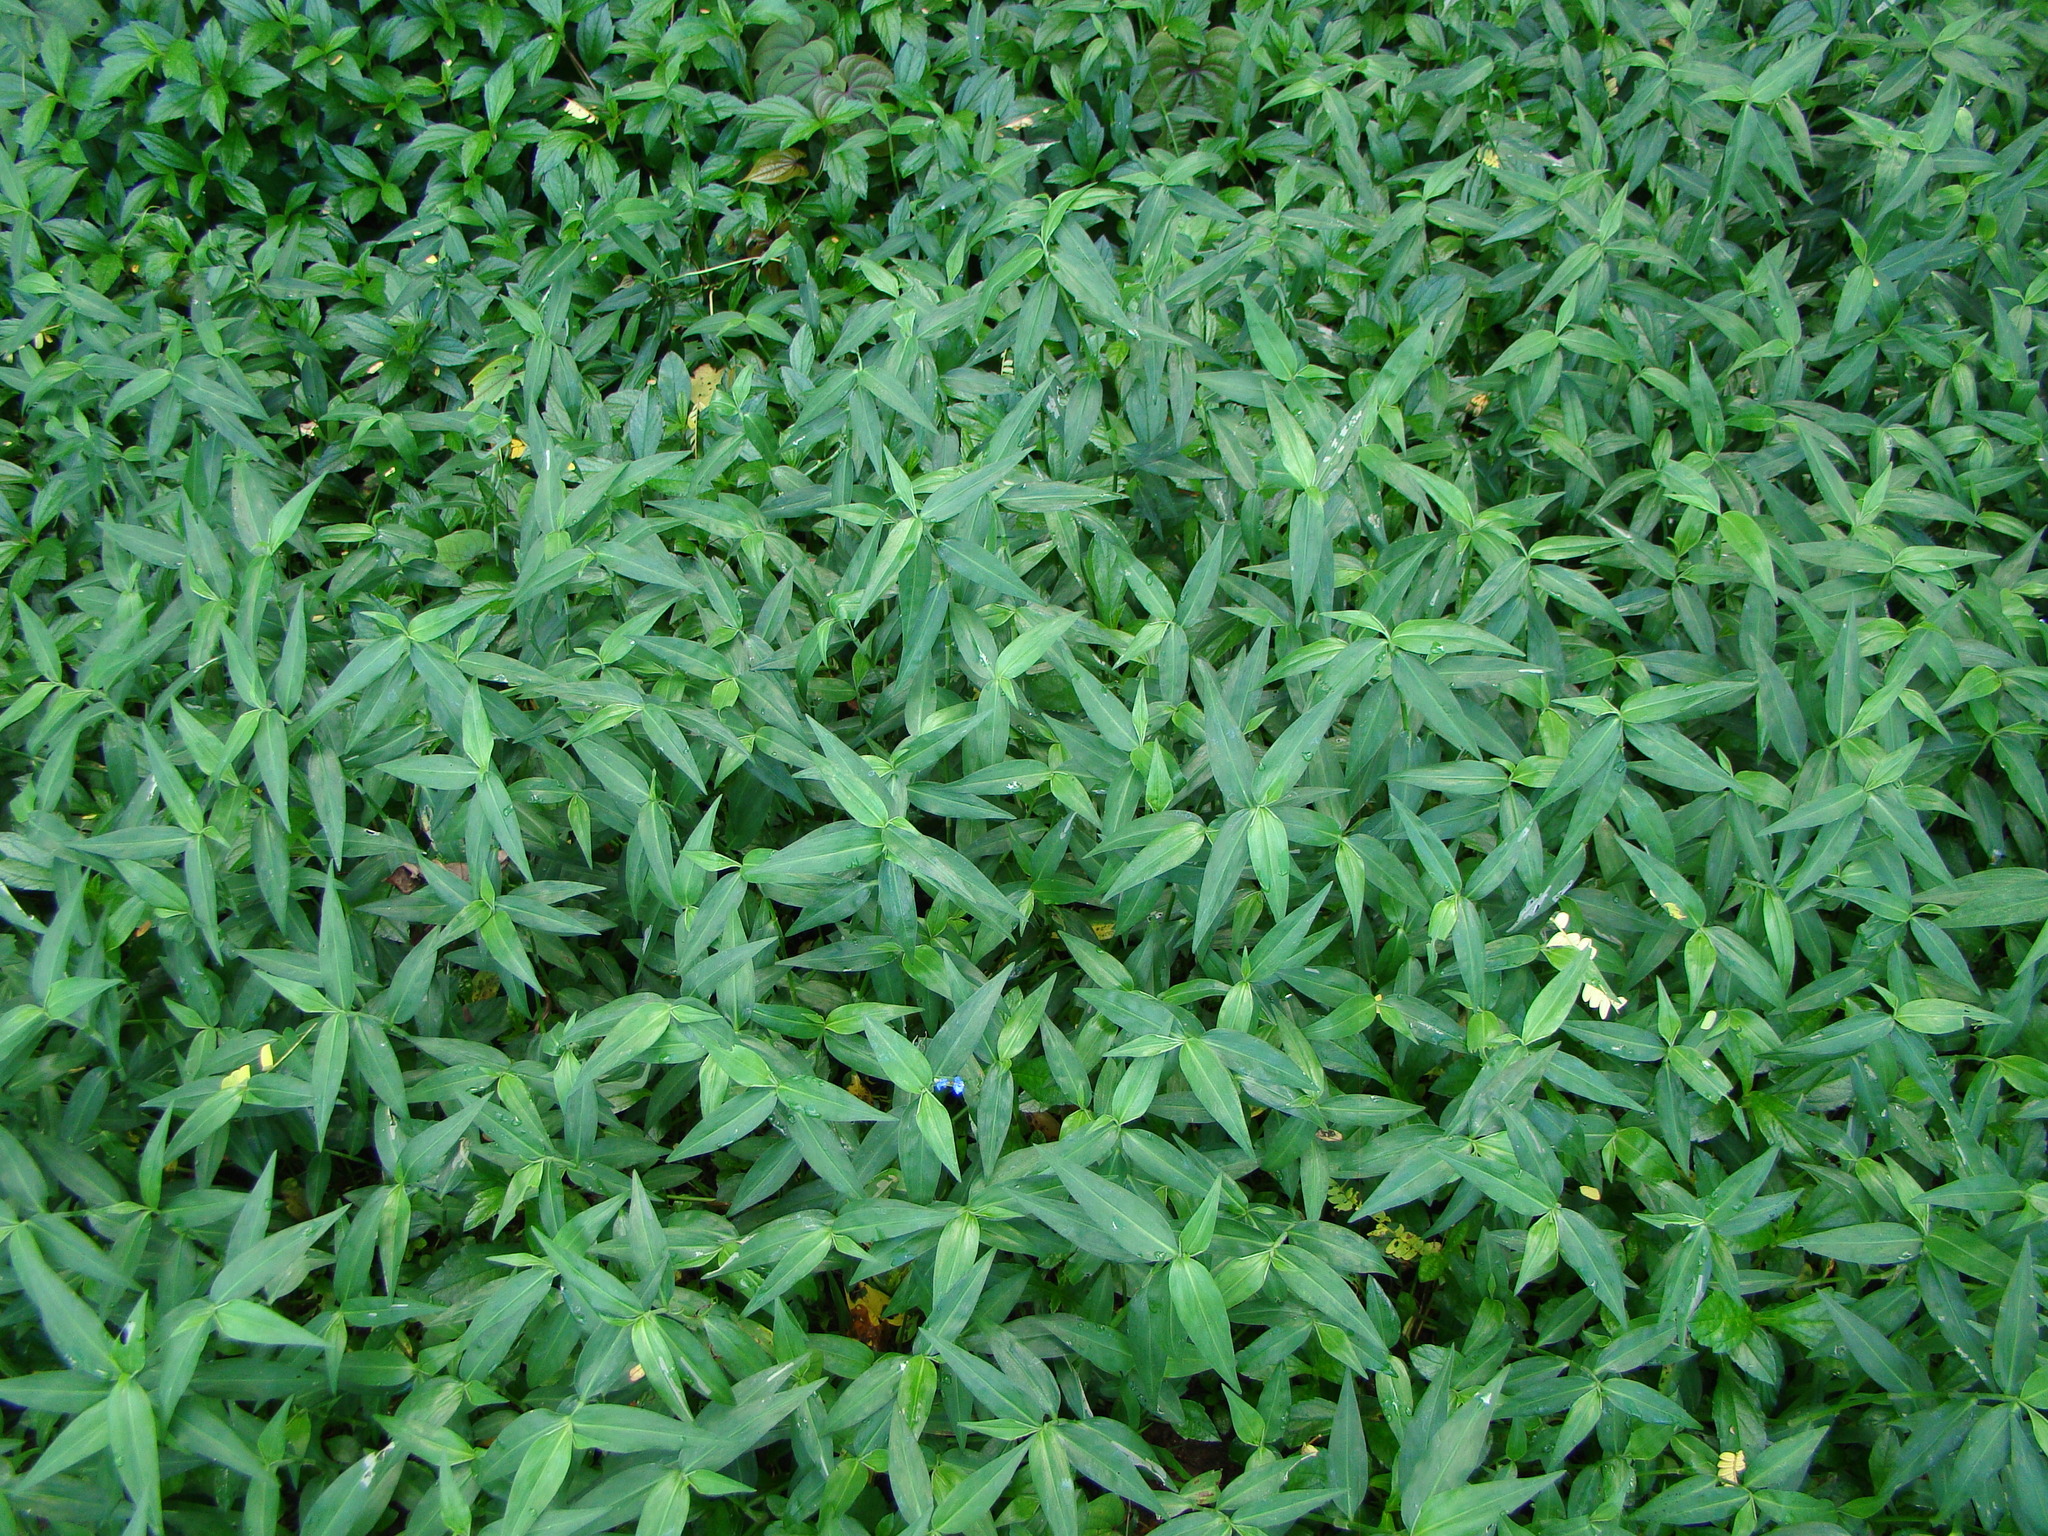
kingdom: Plantae
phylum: Tracheophyta
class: Liliopsida
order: Commelinales
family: Commelinaceae
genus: Commelina
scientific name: Commelina diffusa
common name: Climbing dayflower
